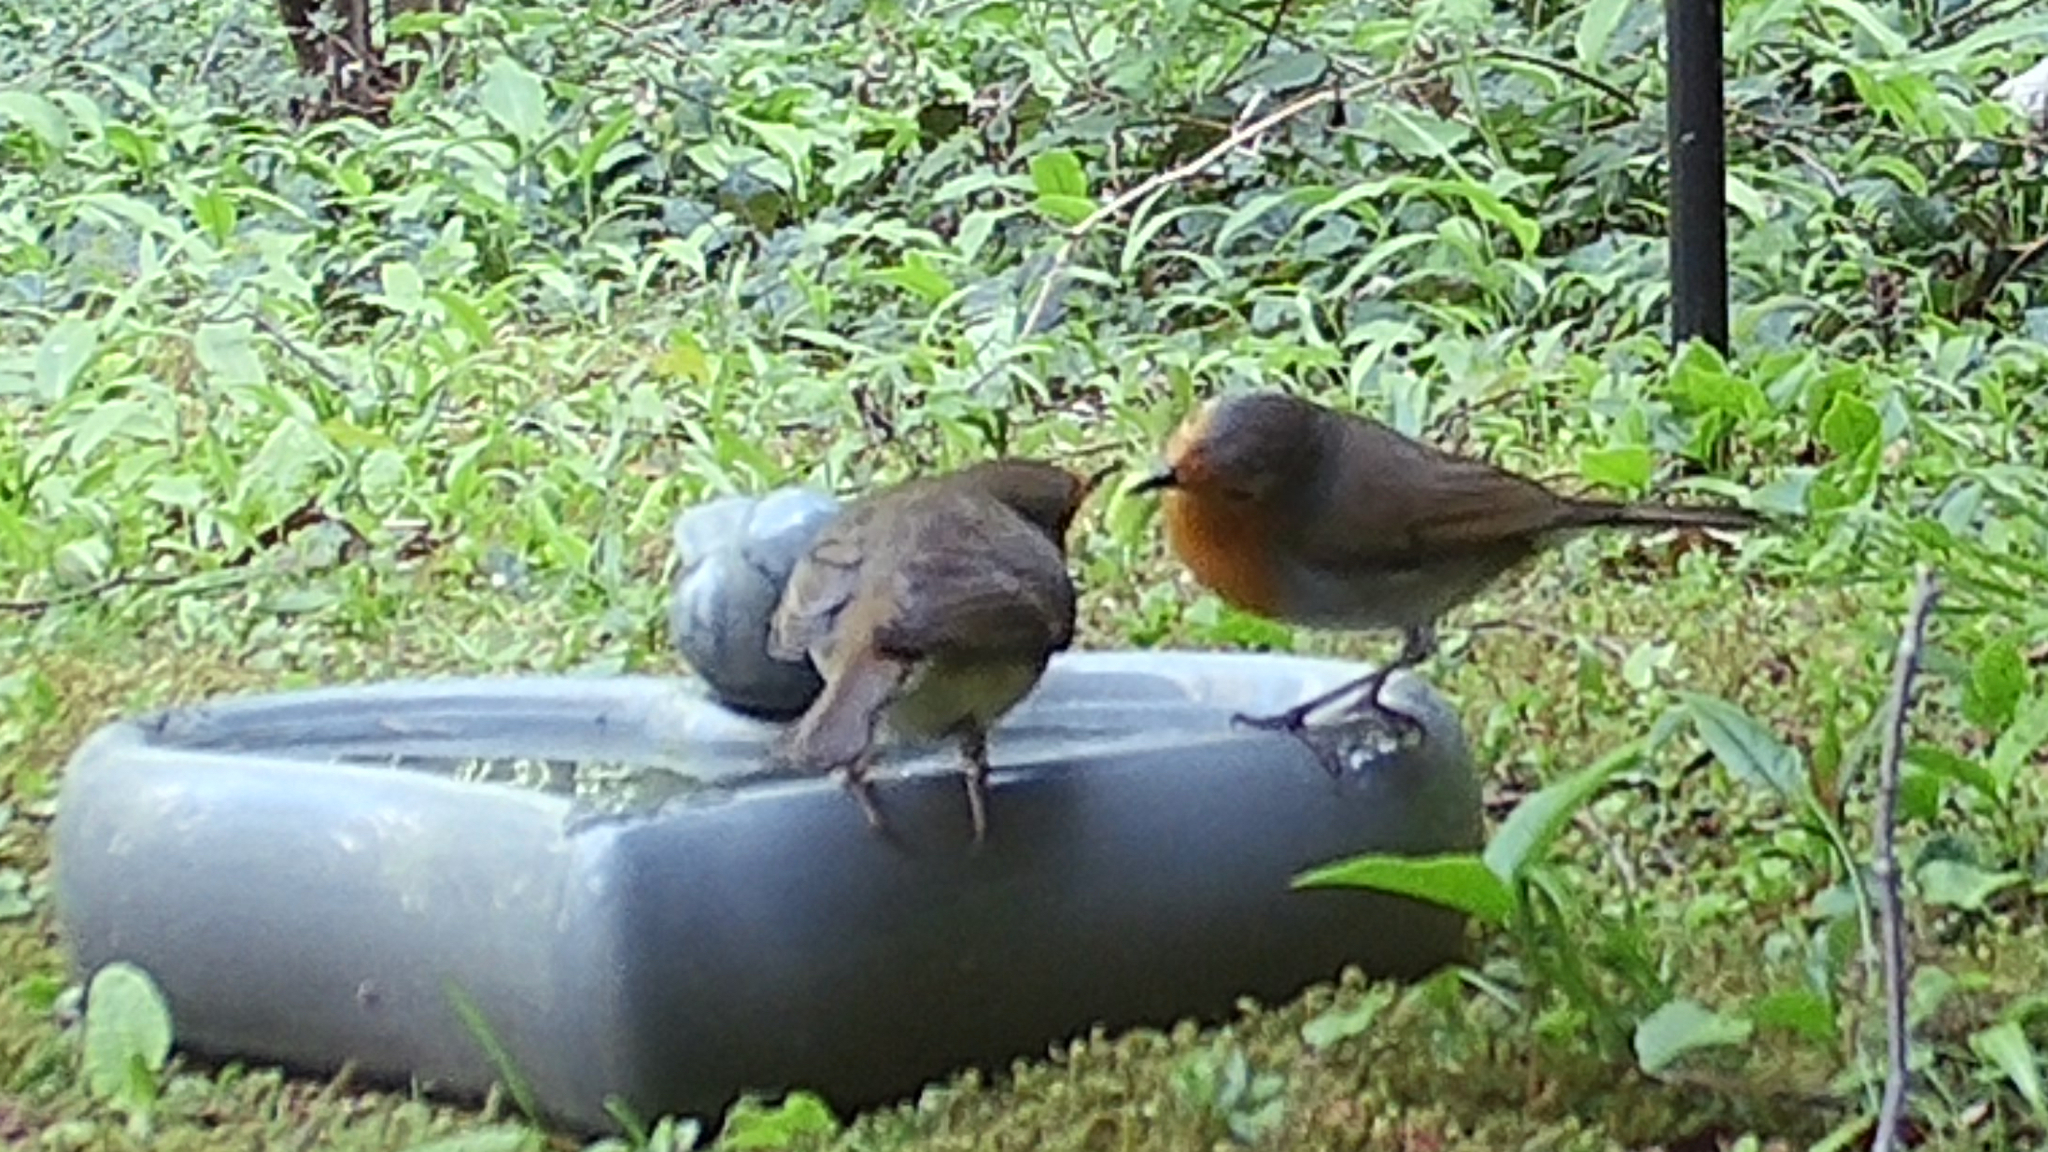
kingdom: Animalia
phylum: Chordata
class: Aves
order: Passeriformes
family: Muscicapidae
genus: Erithacus
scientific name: Erithacus rubecula
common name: European robin
